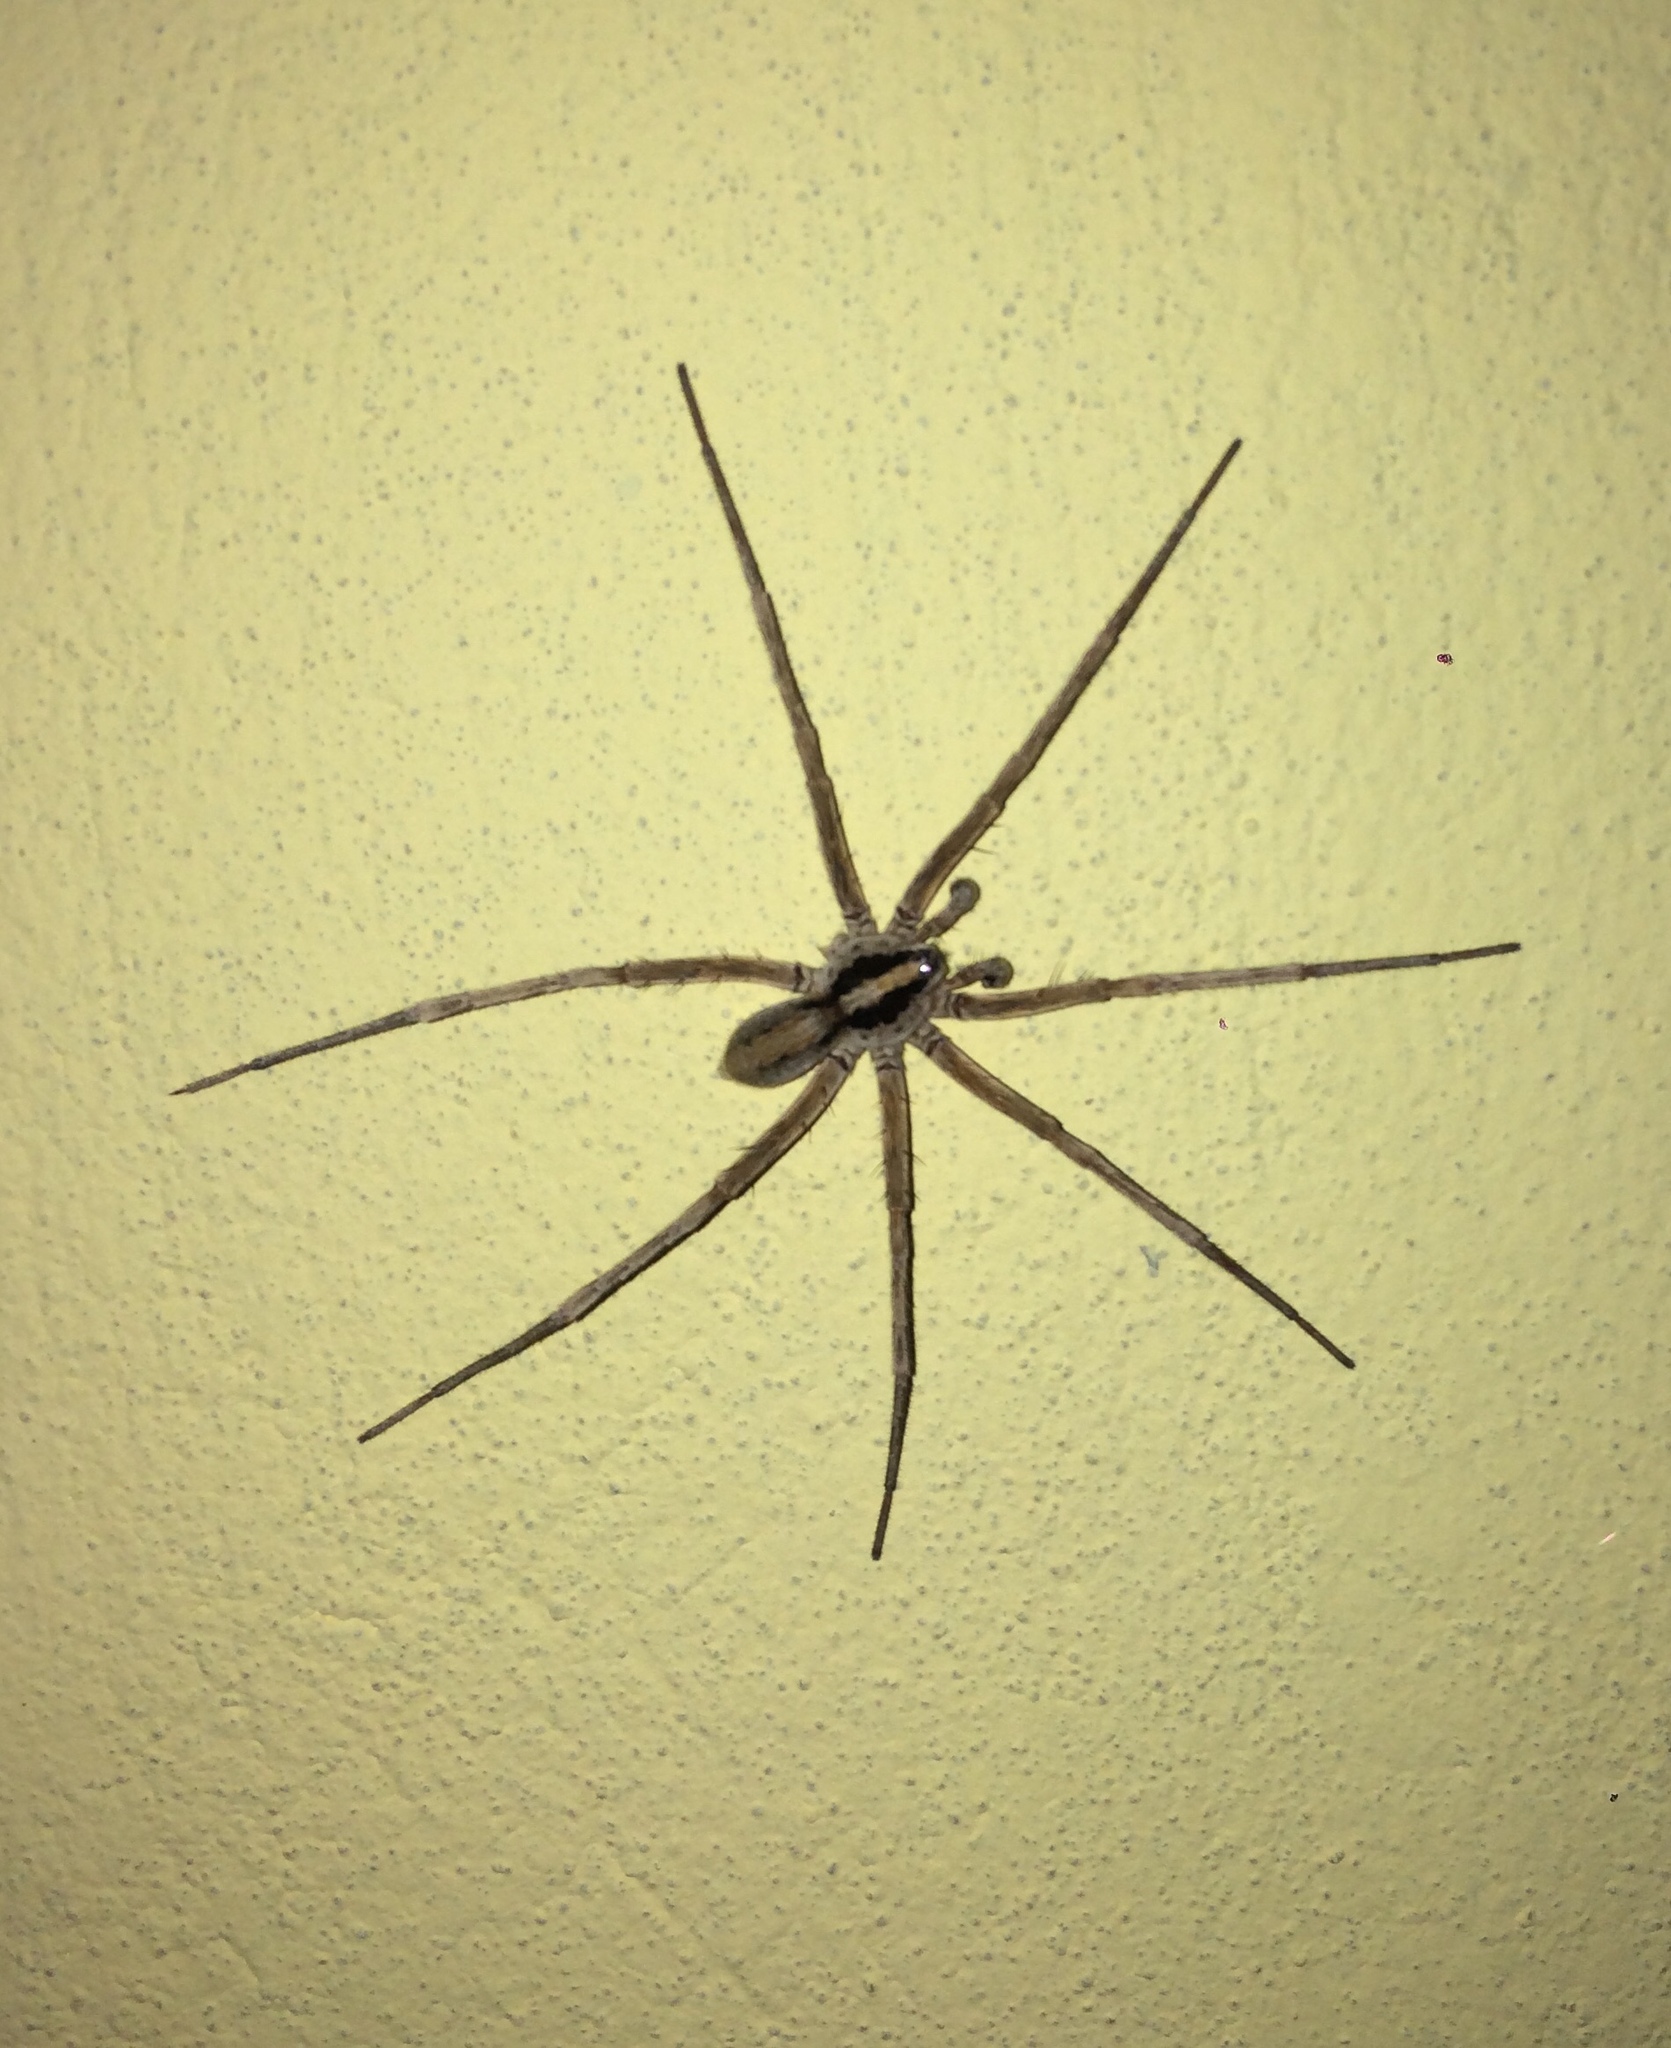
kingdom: Animalia
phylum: Arthropoda
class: Arachnida
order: Araneae
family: Xenoctenidae
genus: Xenoctenus
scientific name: Xenoctenus
